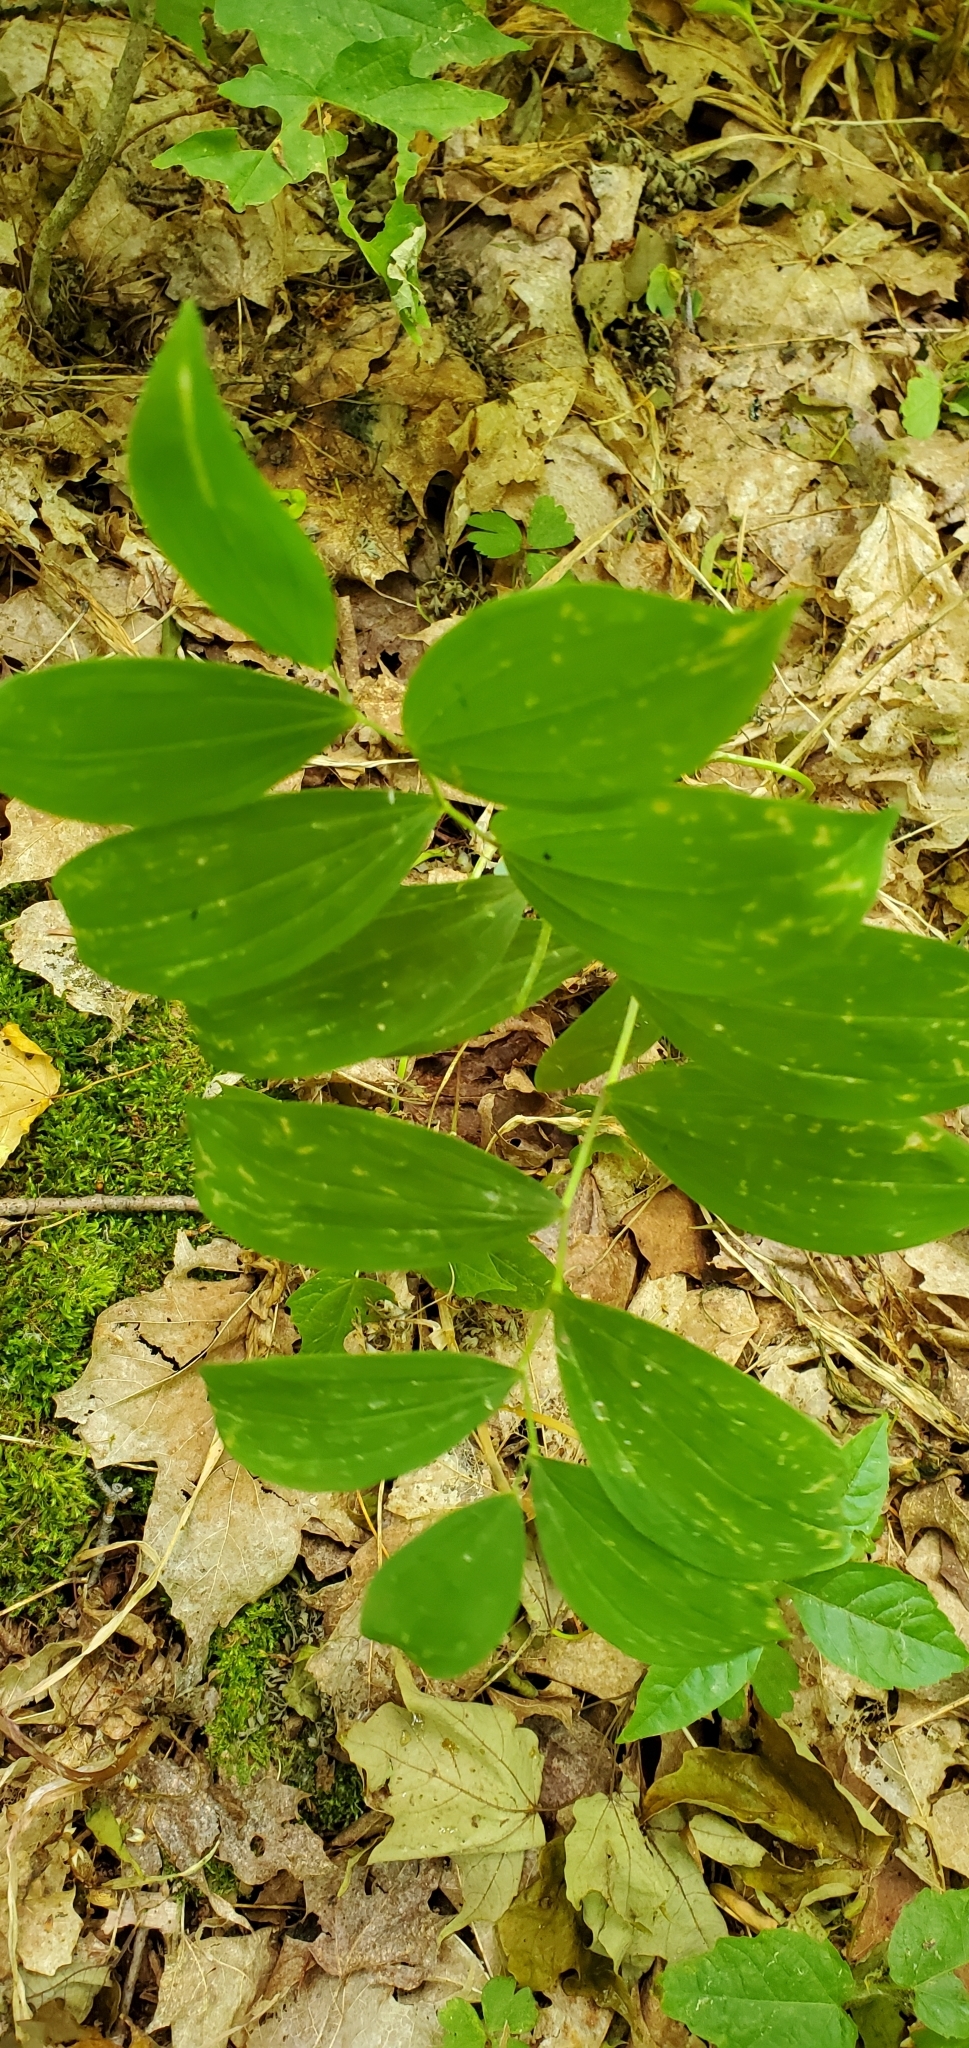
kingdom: Plantae
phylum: Tracheophyta
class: Liliopsida
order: Liliales
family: Colchicaceae
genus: Uvularia
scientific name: Uvularia sessilifolia
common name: Straw-lily
